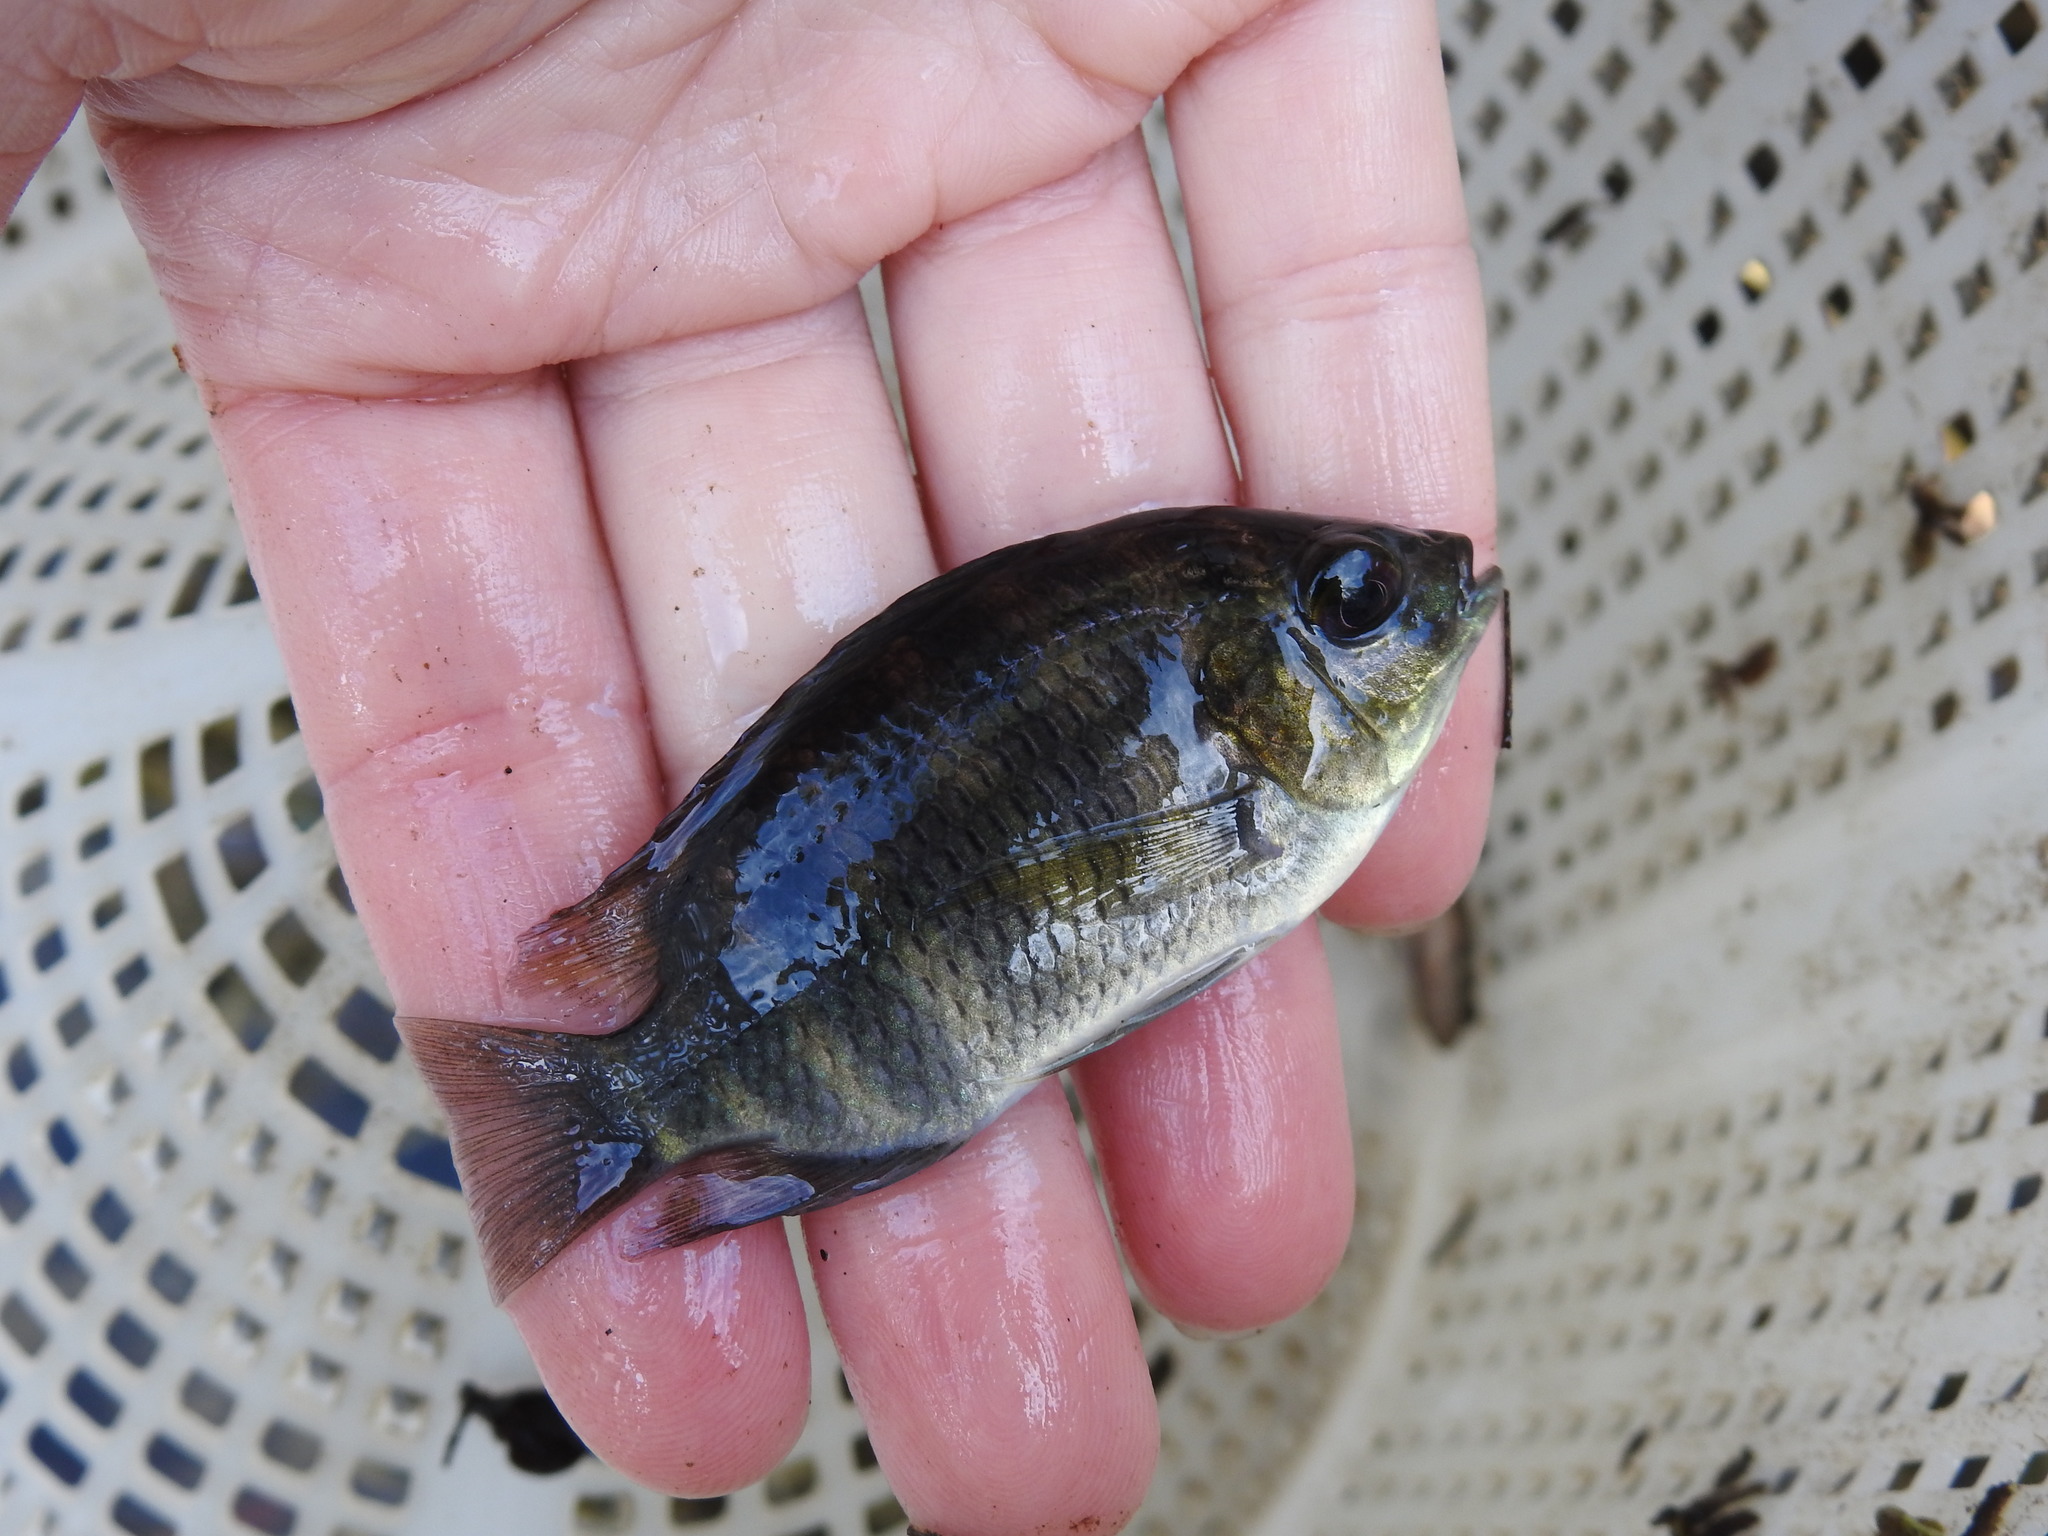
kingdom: Animalia
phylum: Chordata
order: Perciformes
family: Cichlidae
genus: Pelmatolapia
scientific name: Pelmatolapia mariae
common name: Spotted tilapia
